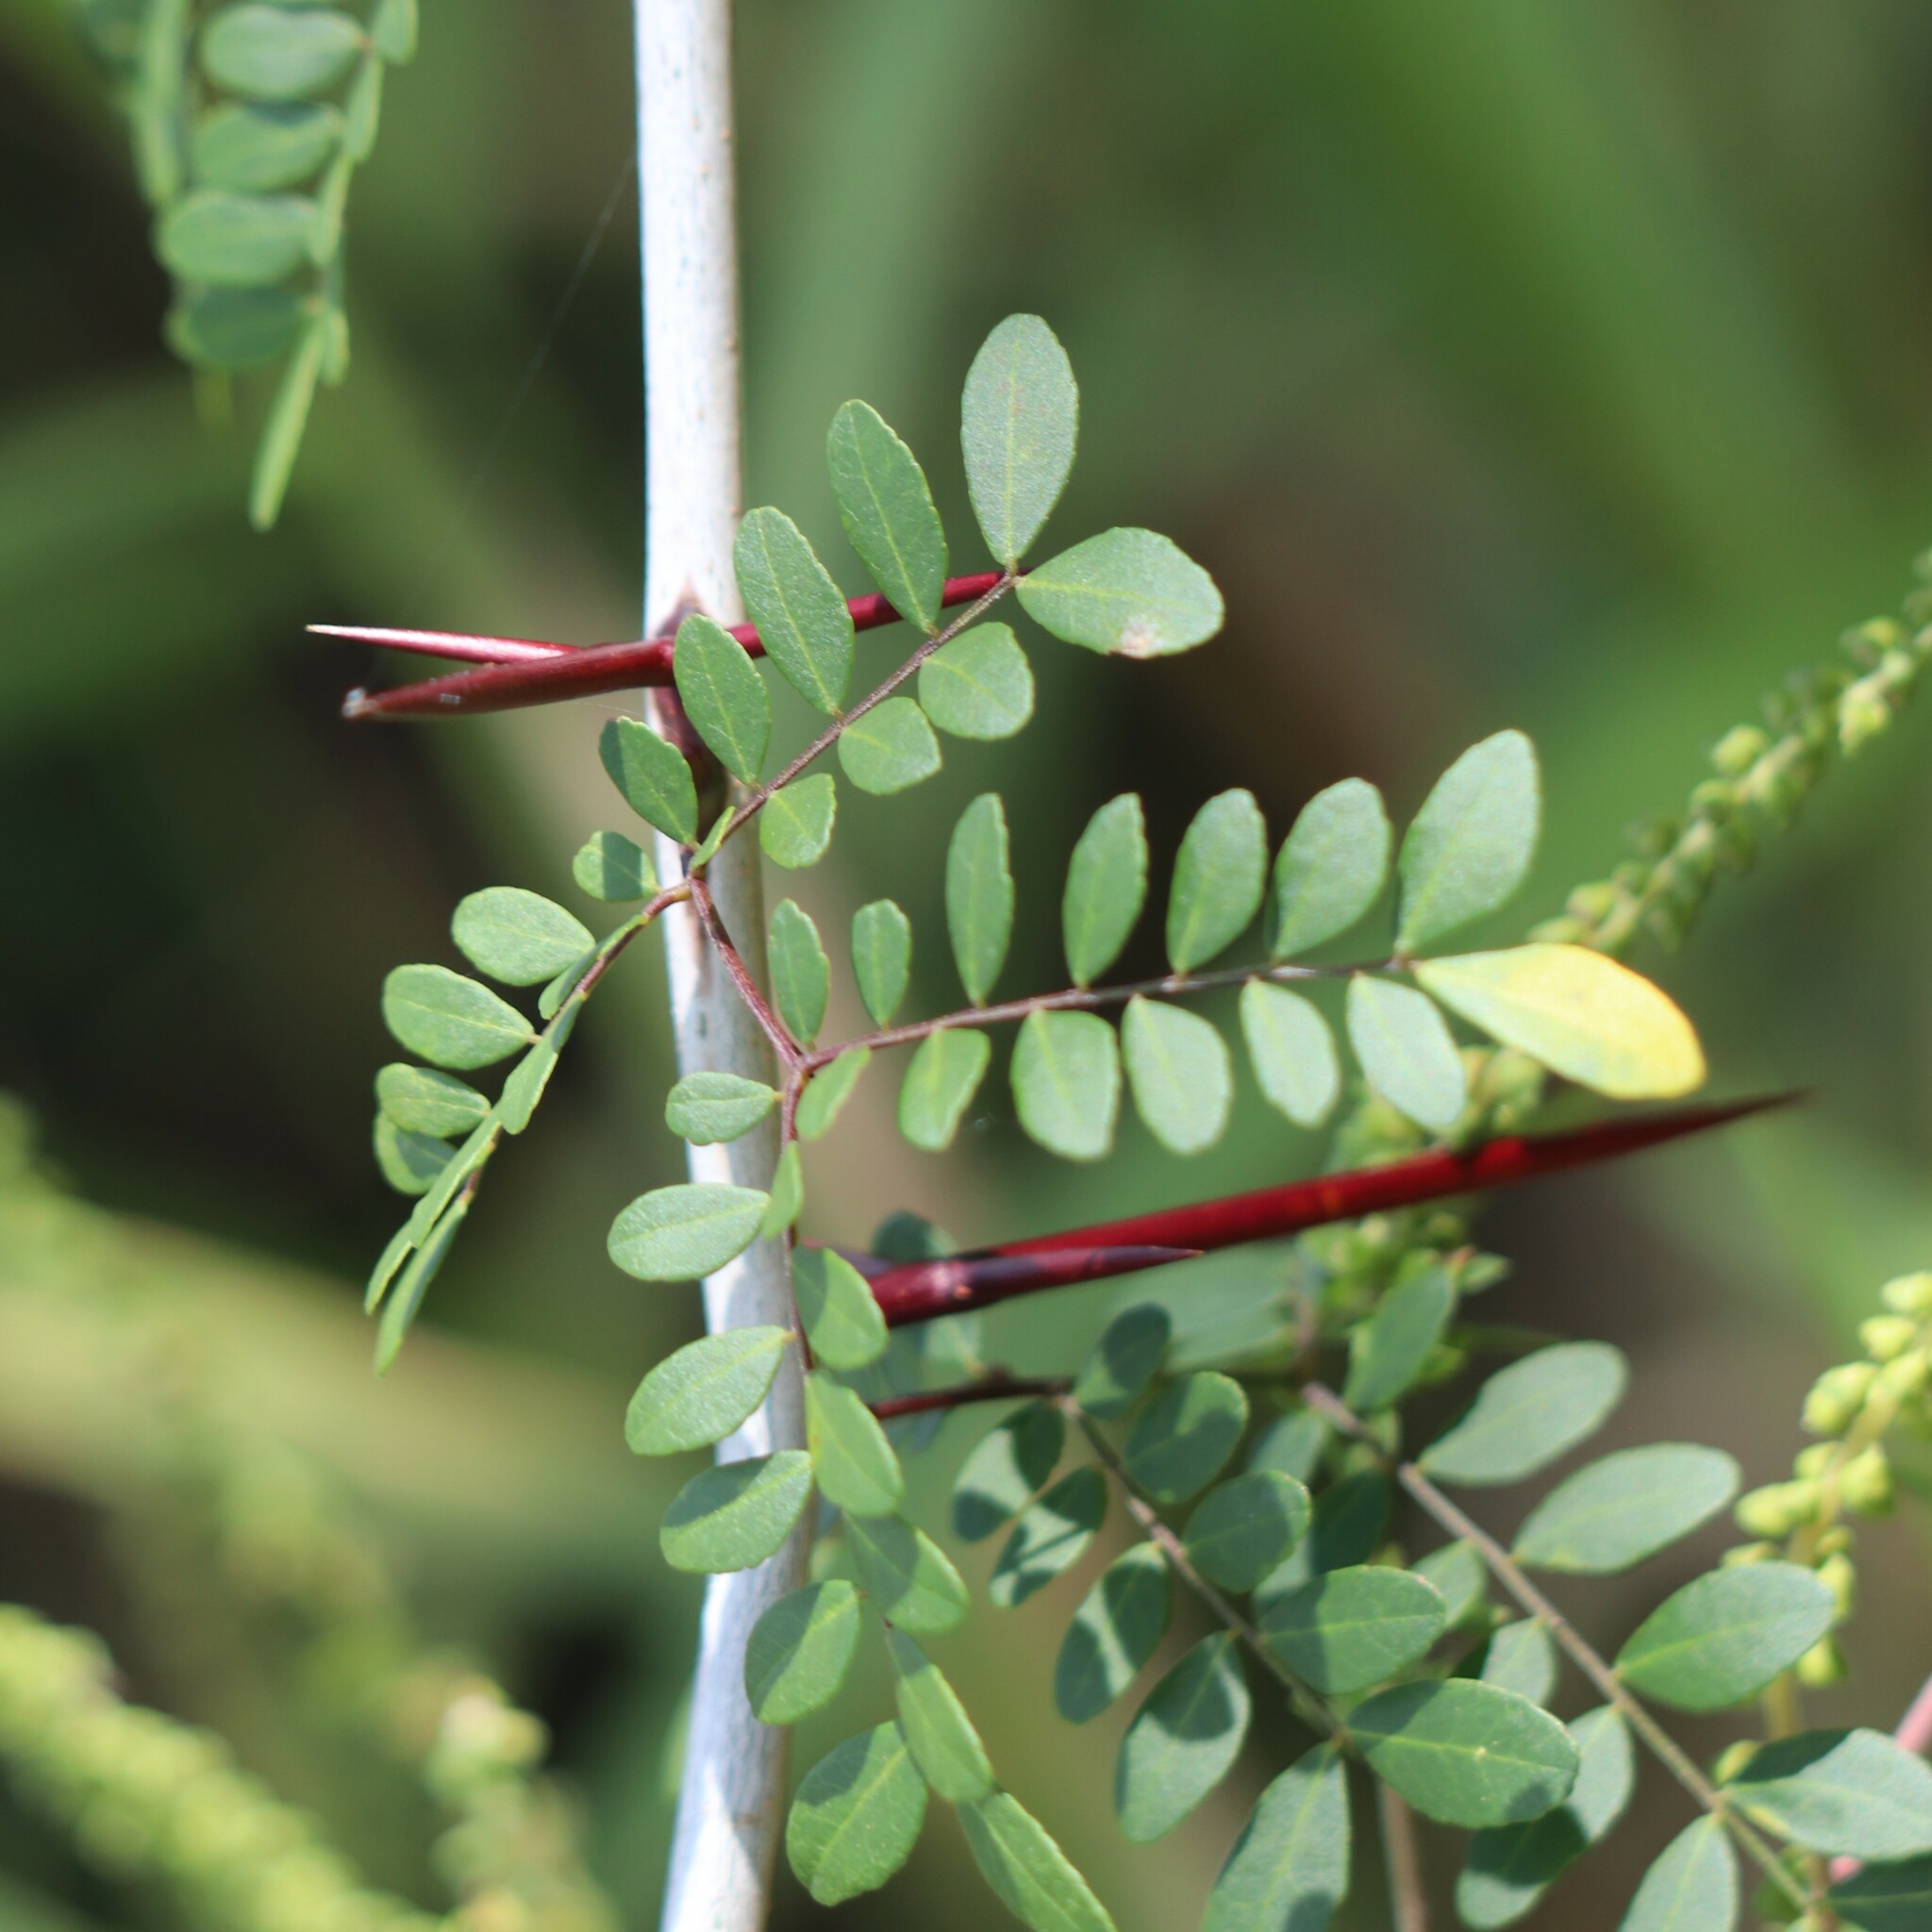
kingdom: Plantae
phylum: Tracheophyta
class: Magnoliopsida
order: Fabales
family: Fabaceae
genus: Gleditsia
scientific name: Gleditsia aquatica
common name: Swamp-locust
